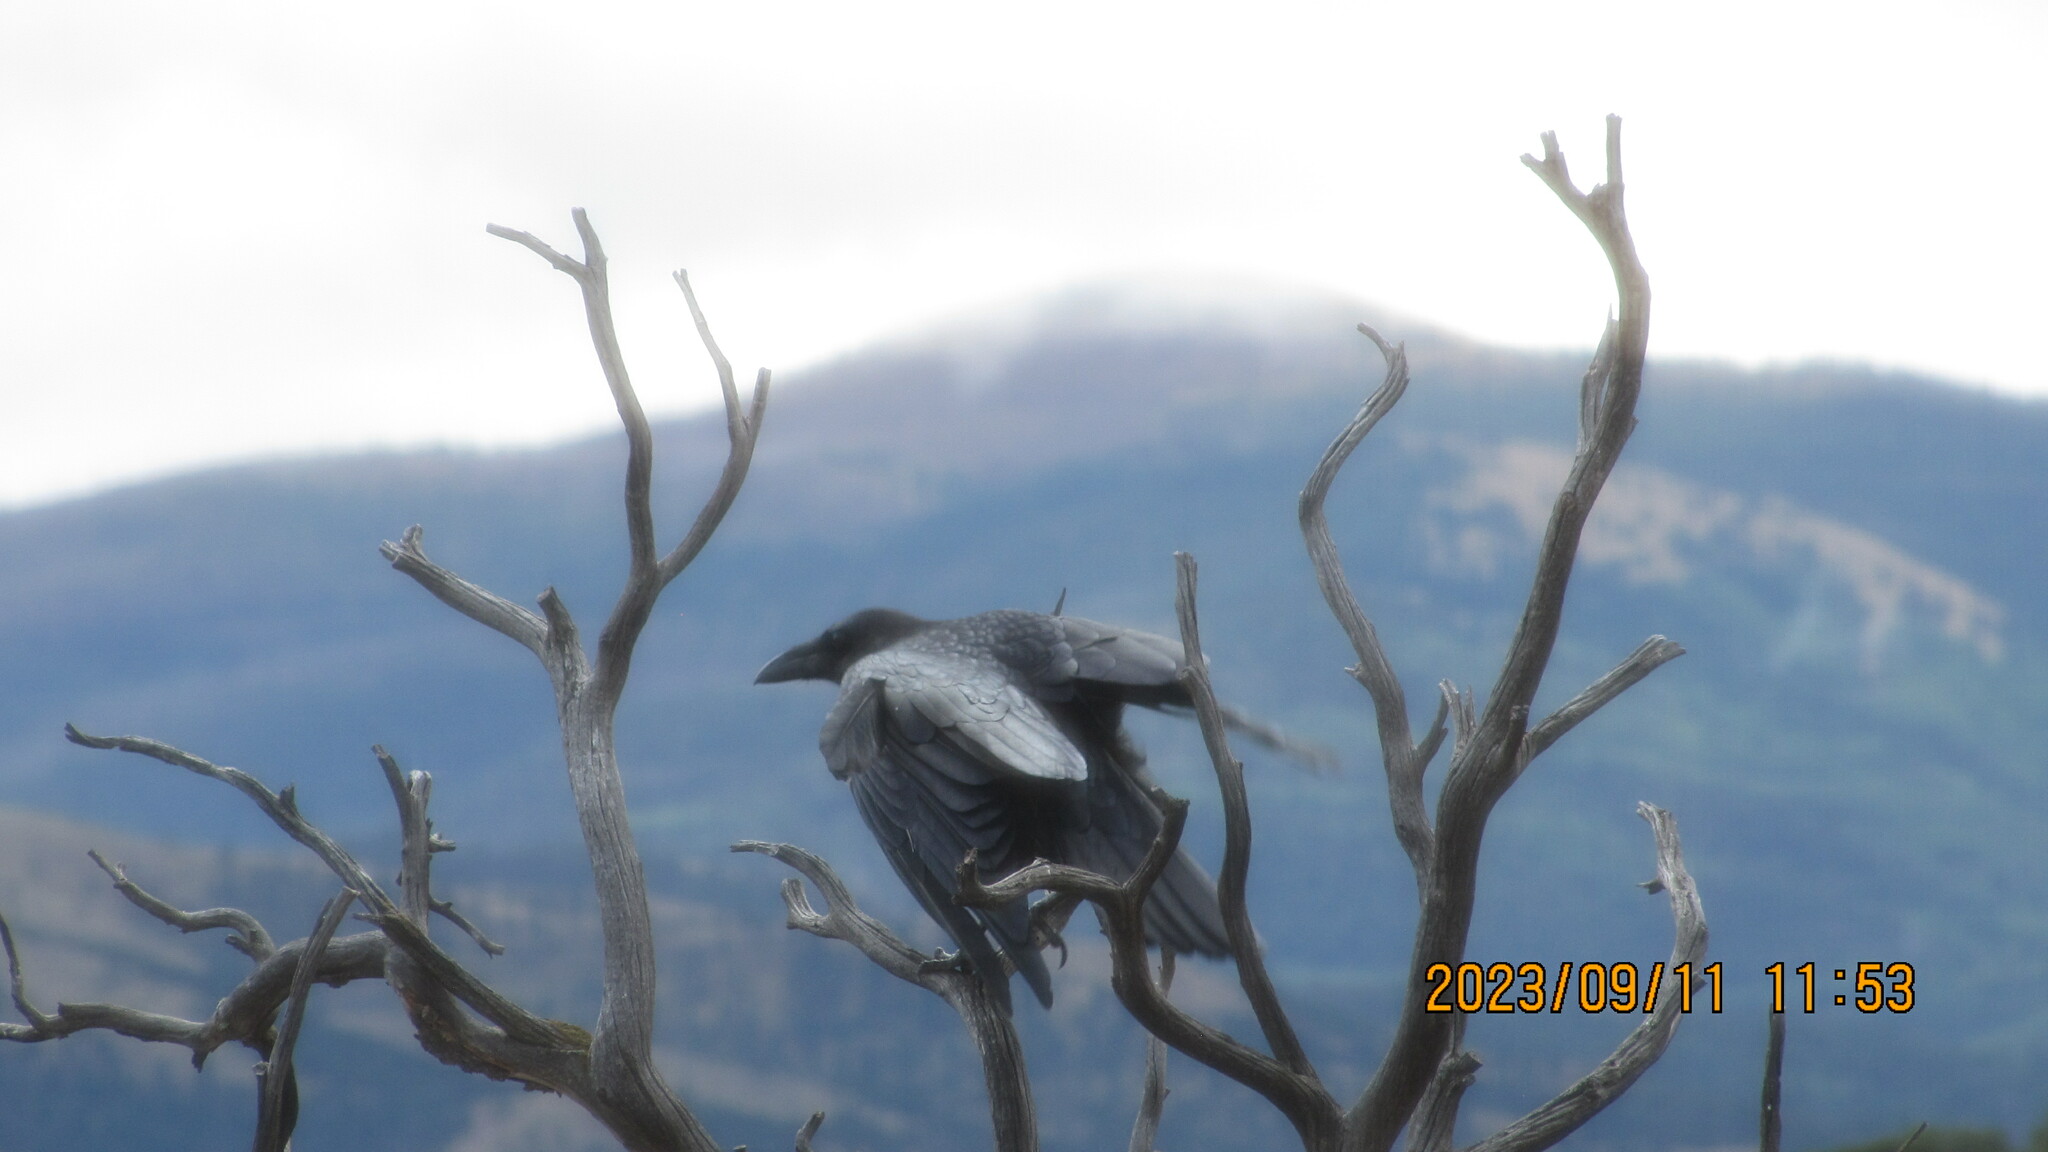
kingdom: Animalia
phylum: Chordata
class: Aves
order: Passeriformes
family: Corvidae
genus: Corvus
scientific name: Corvus corax
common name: Common raven
